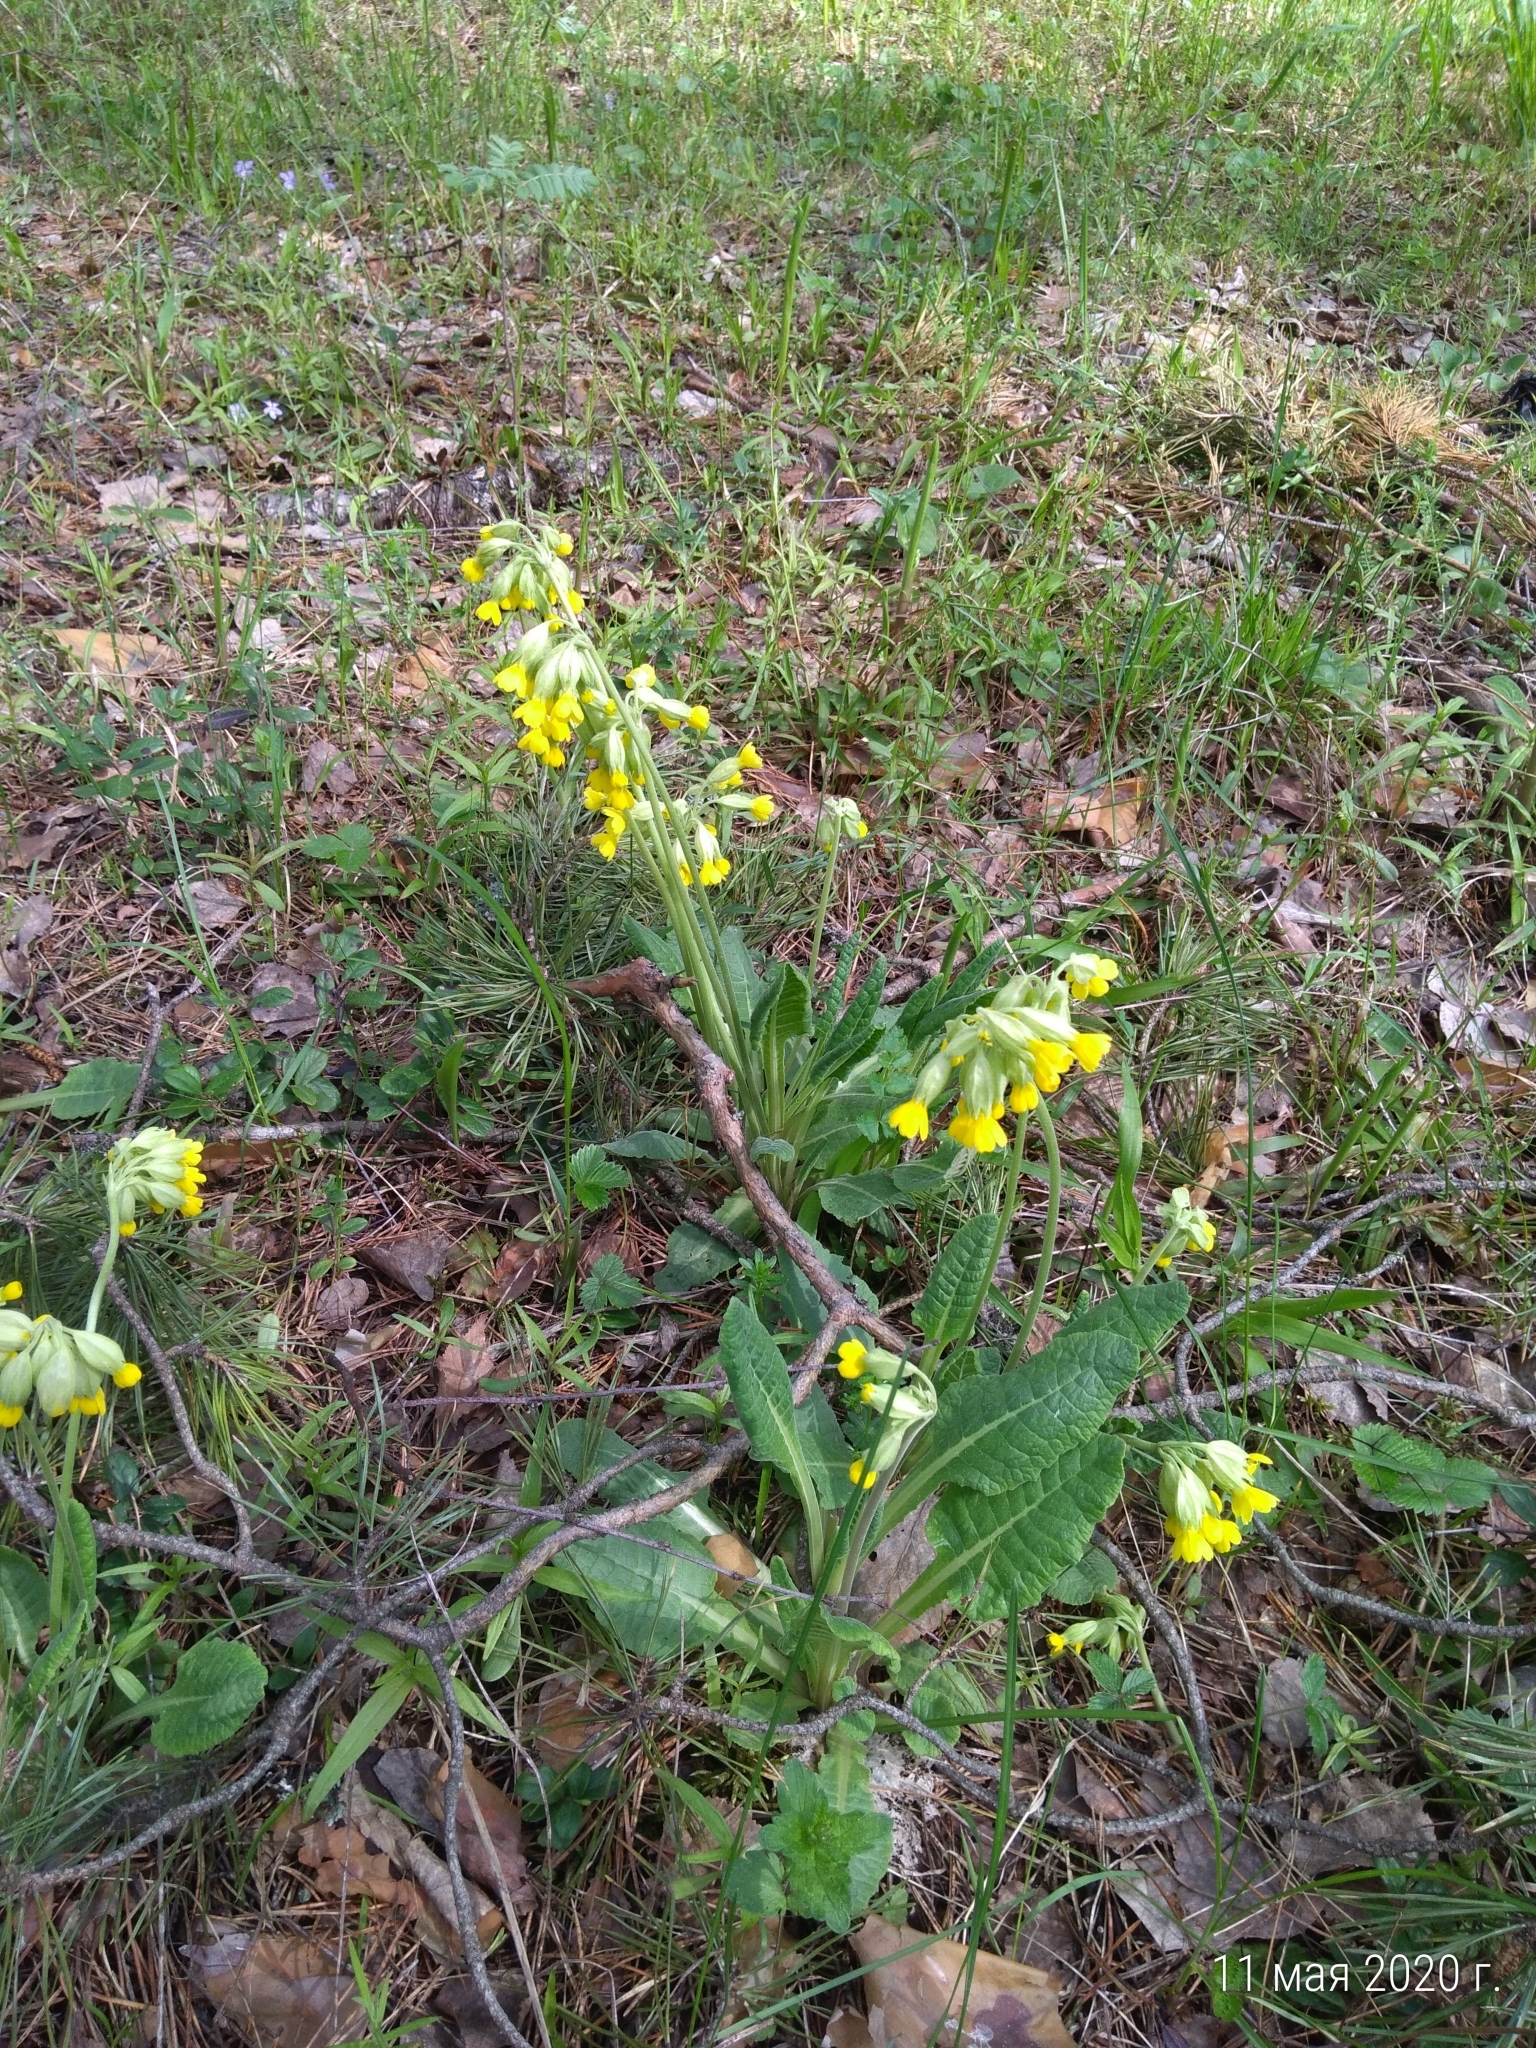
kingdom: Plantae
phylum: Tracheophyta
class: Magnoliopsida
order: Ericales
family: Primulaceae
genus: Primula
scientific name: Primula veris
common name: Cowslip
